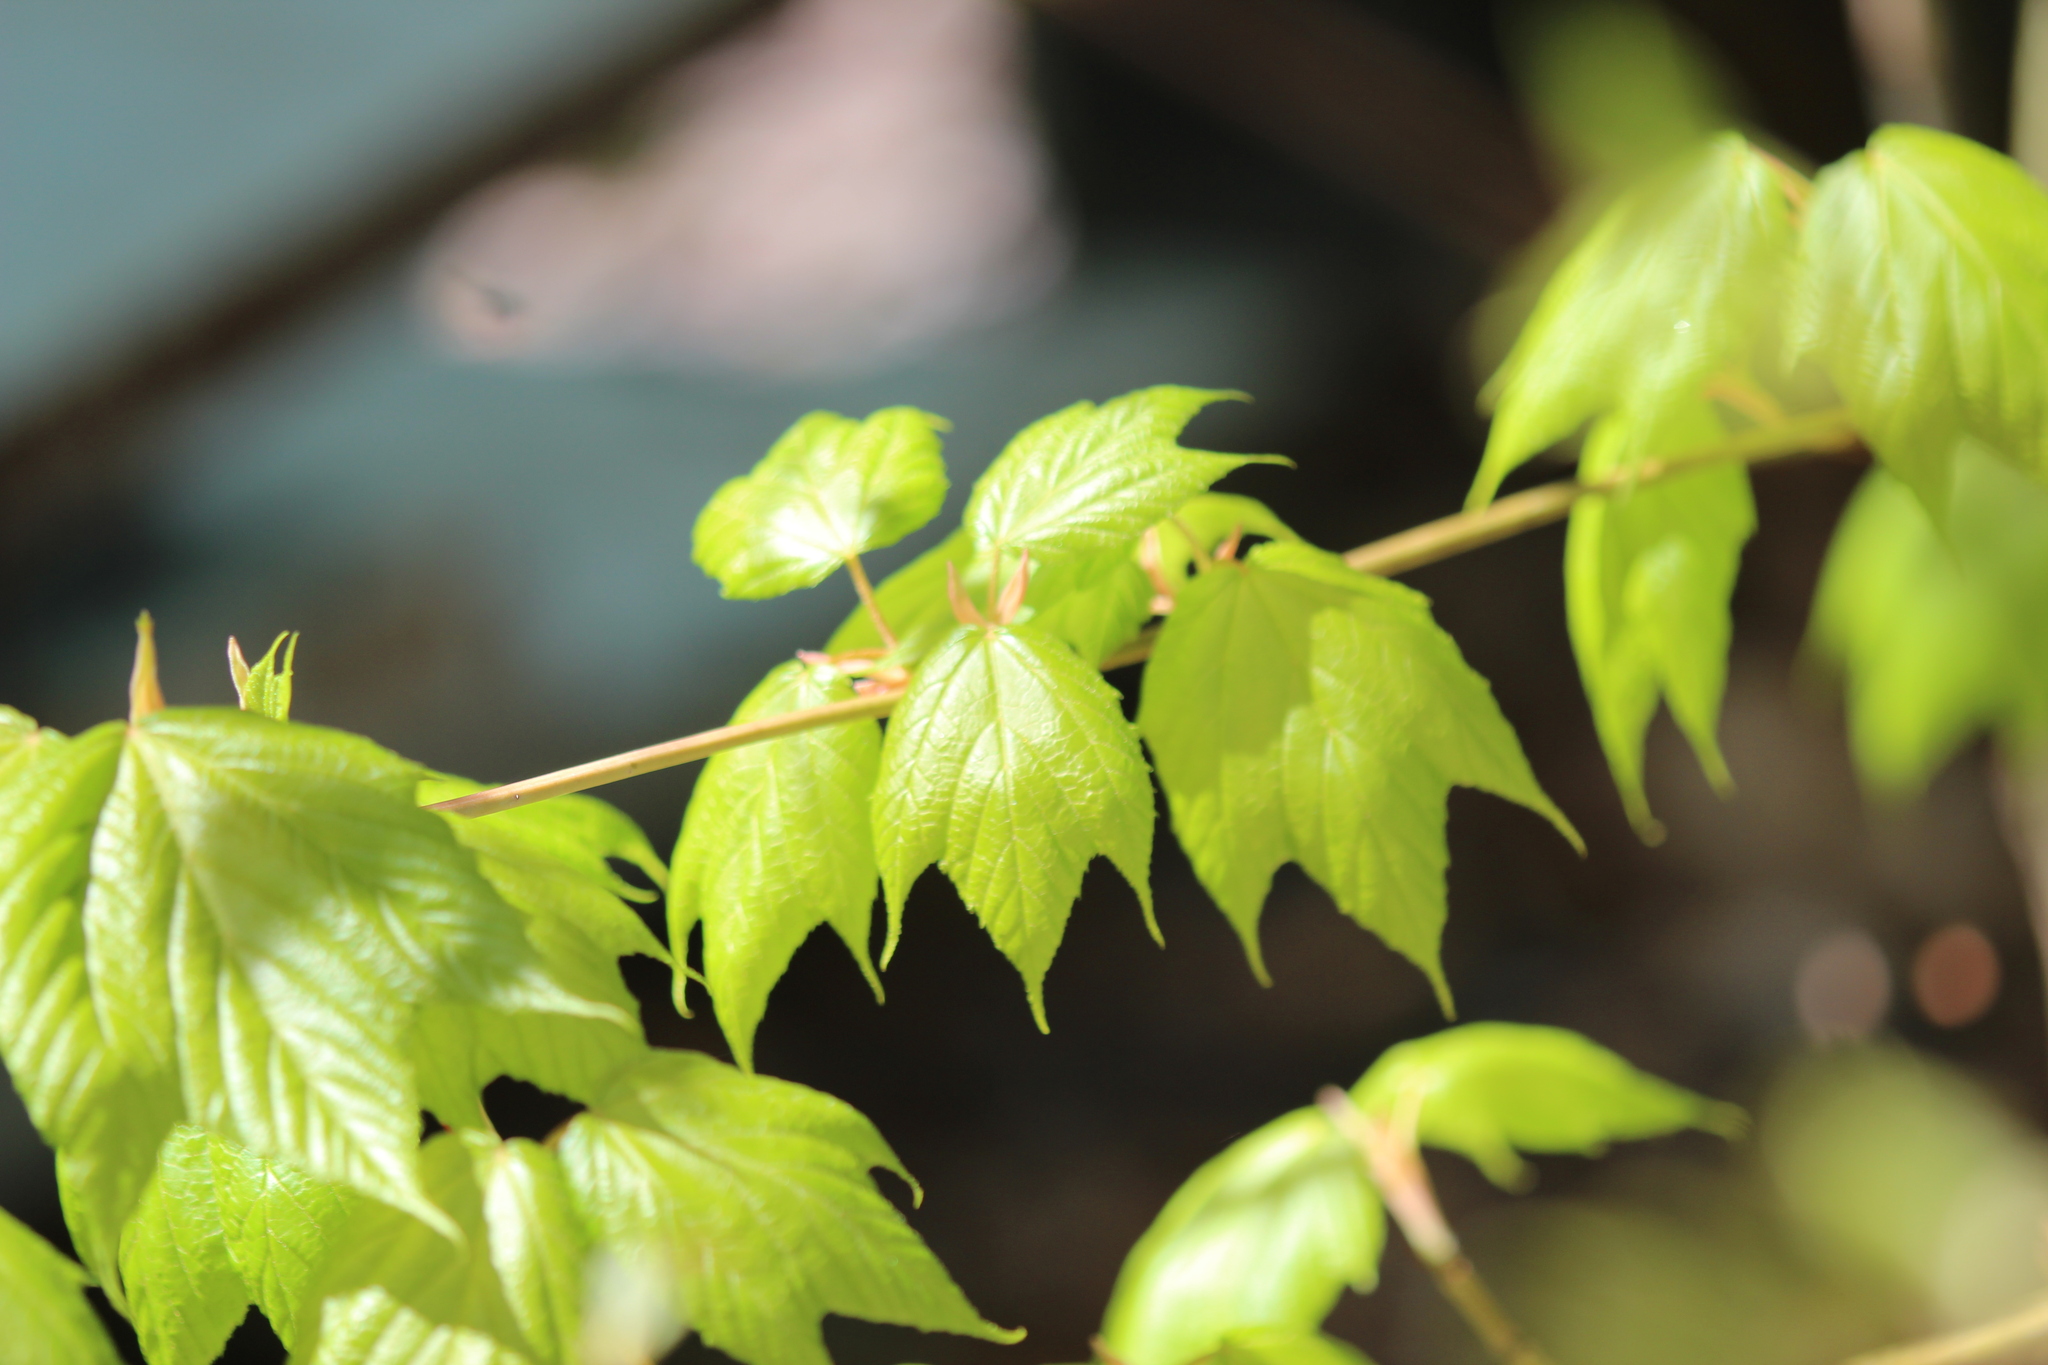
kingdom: Plantae
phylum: Tracheophyta
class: Magnoliopsida
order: Sapindales
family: Sapindaceae
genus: Acer
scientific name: Acer pensylvanicum
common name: Moosewood
